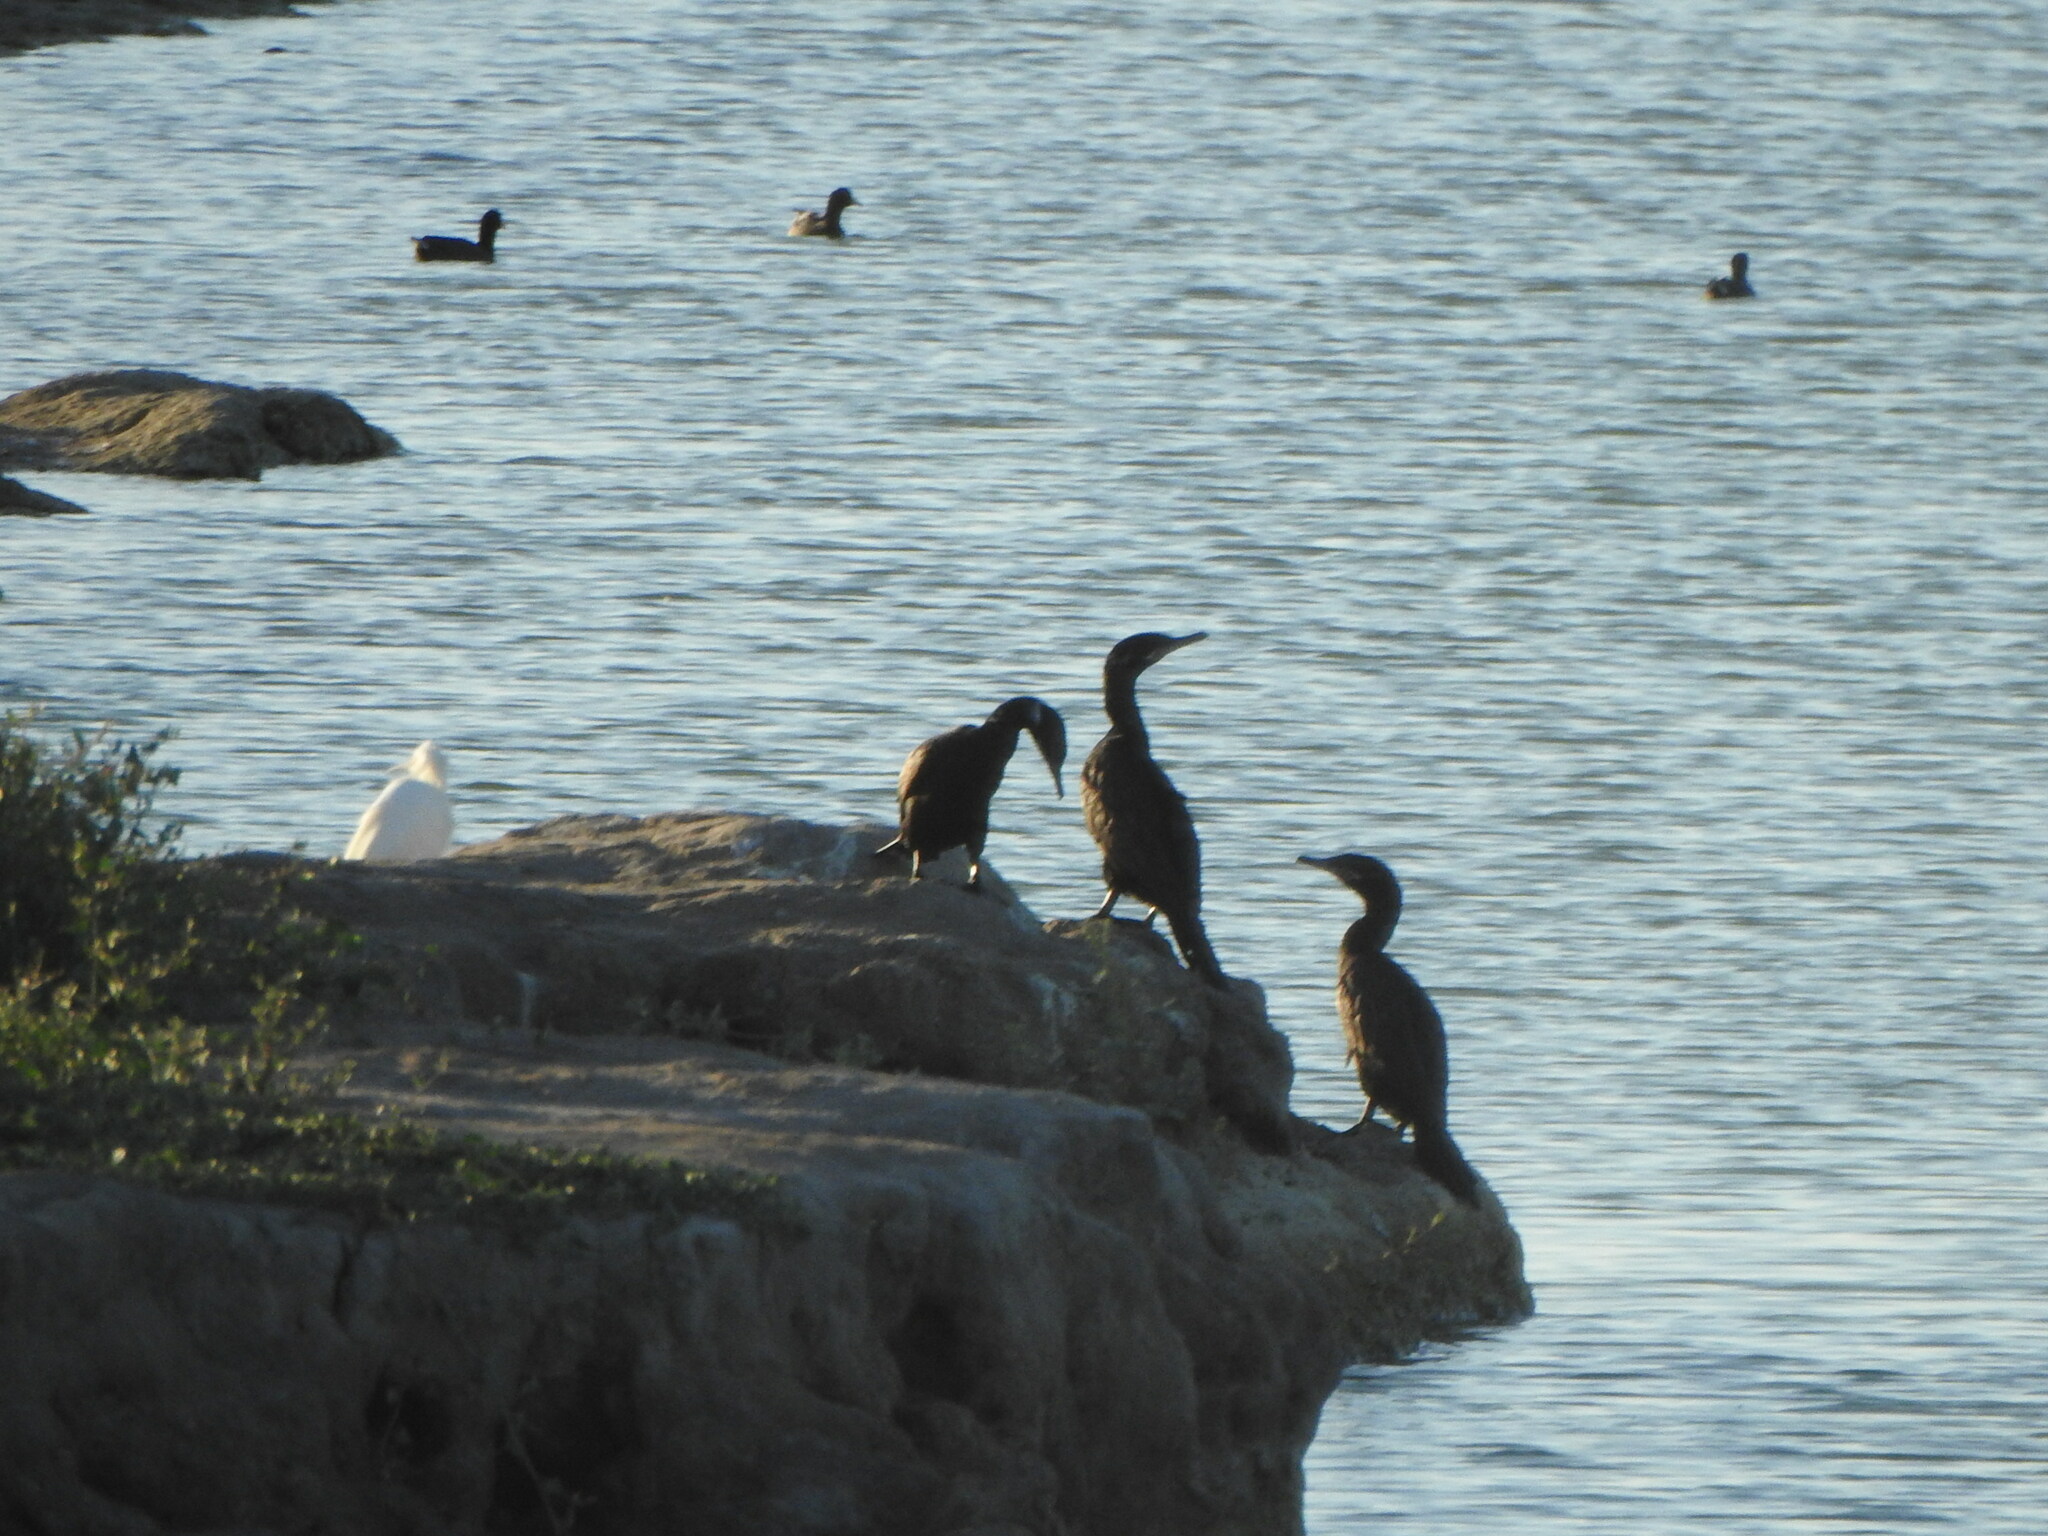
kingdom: Animalia
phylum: Chordata
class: Aves
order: Suliformes
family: Phalacrocoracidae
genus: Phalacrocorax
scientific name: Phalacrocorax brasilianus
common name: Neotropic cormorant
